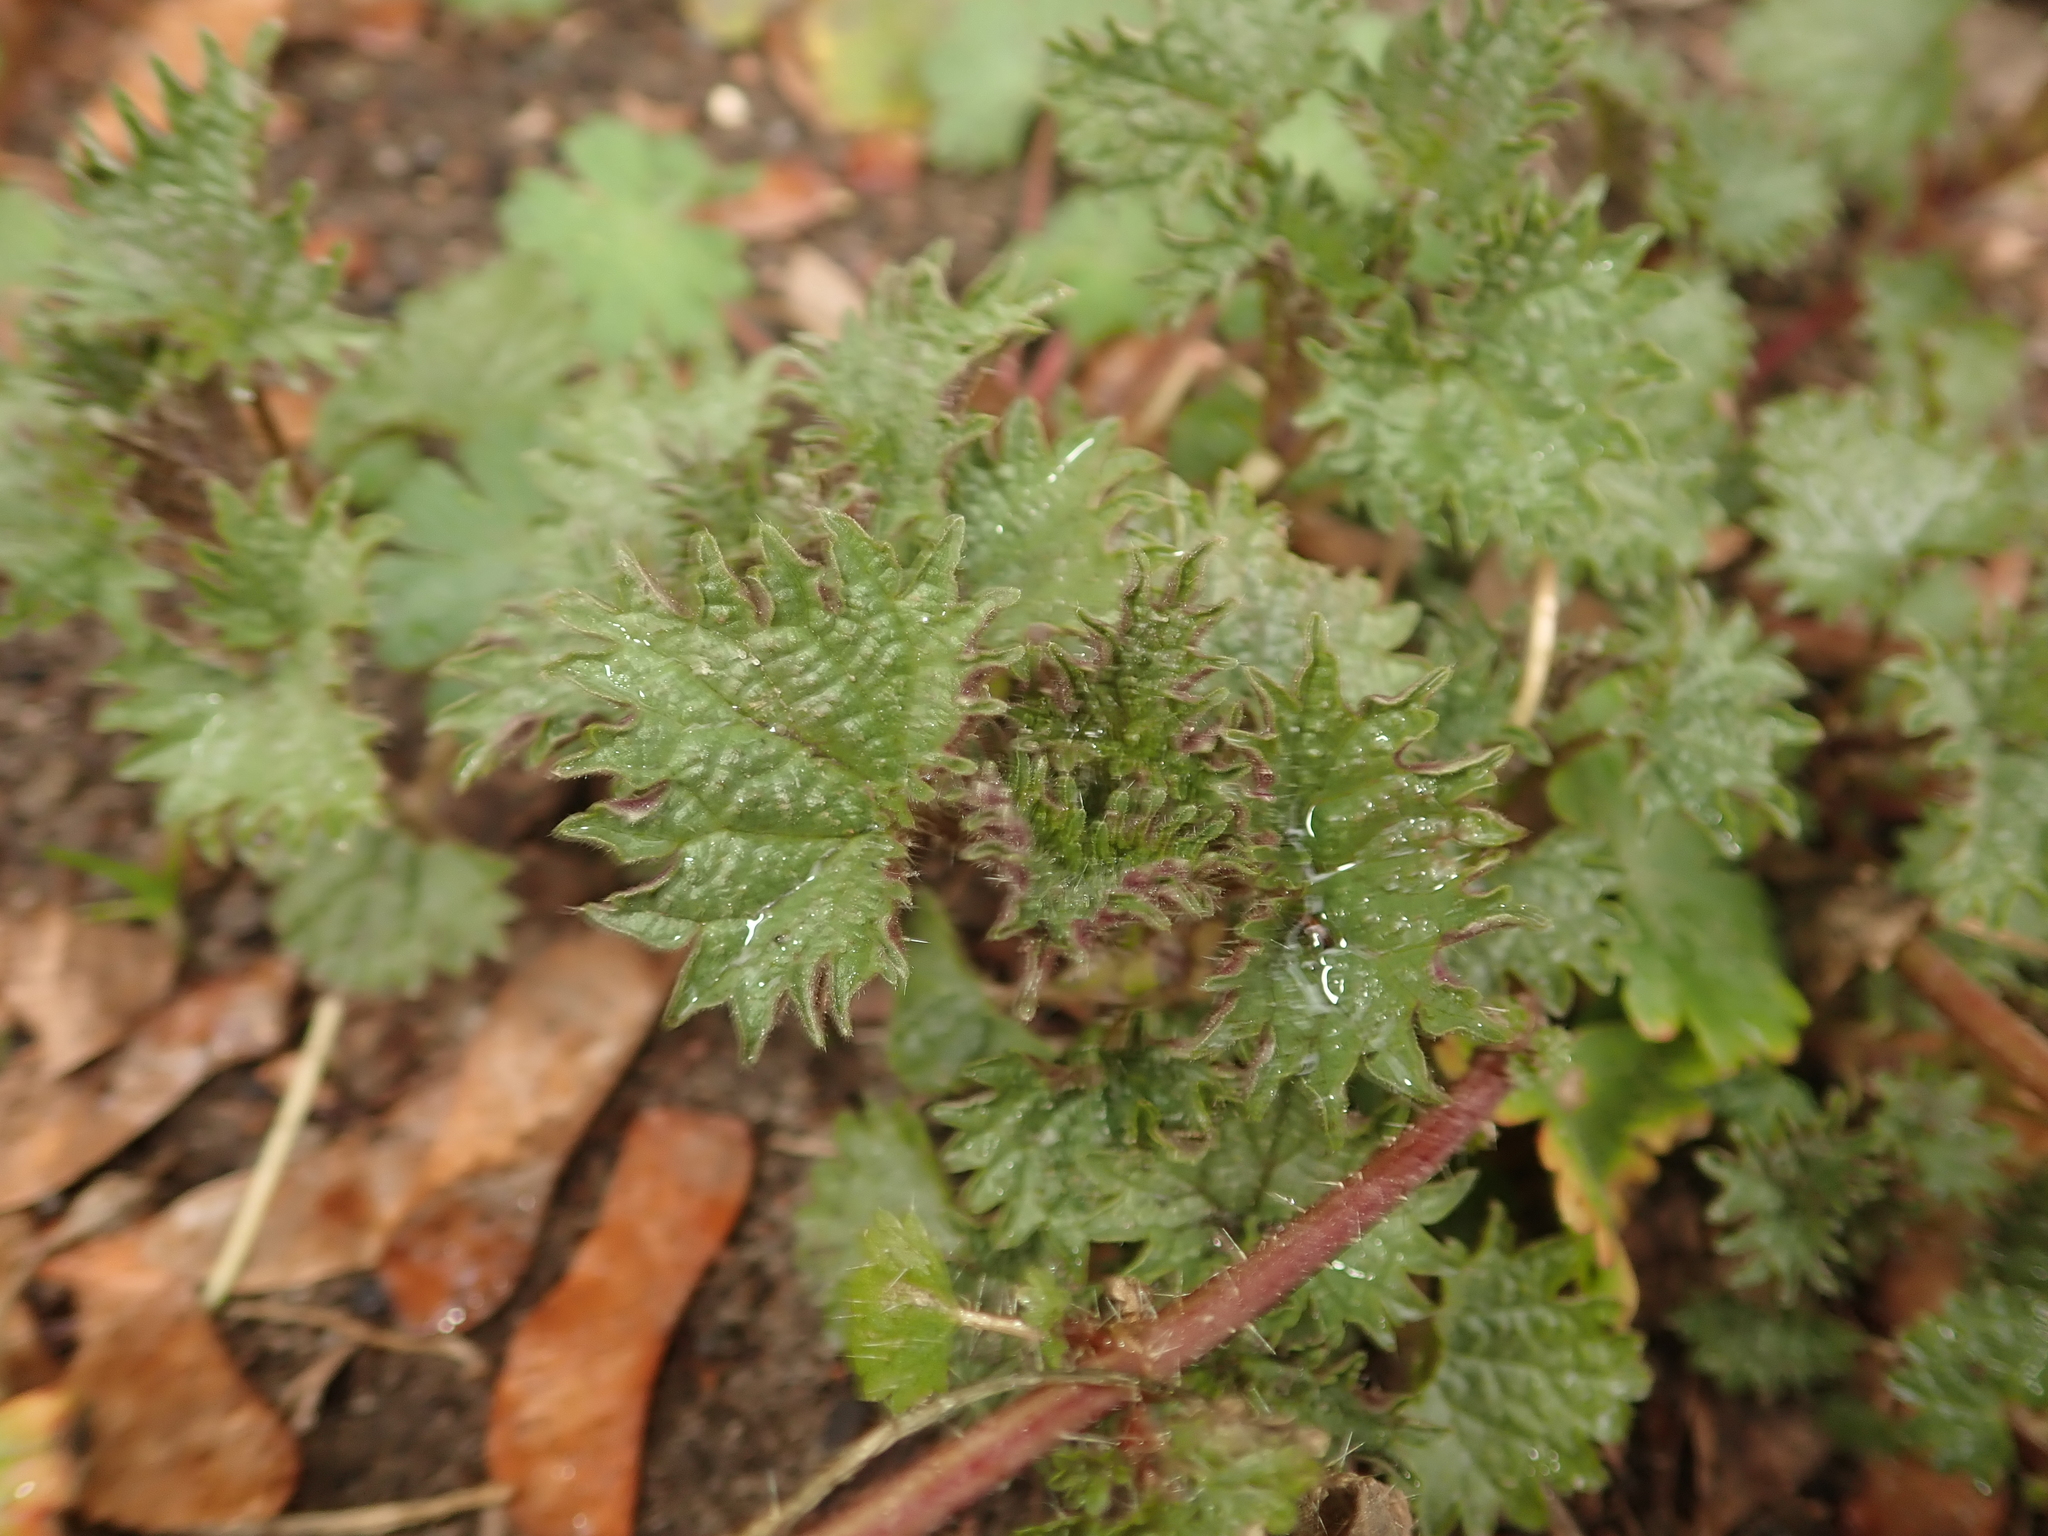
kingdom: Plantae
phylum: Tracheophyta
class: Magnoliopsida
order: Rosales
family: Urticaceae
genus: Urtica
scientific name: Urtica dioica
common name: Common nettle
